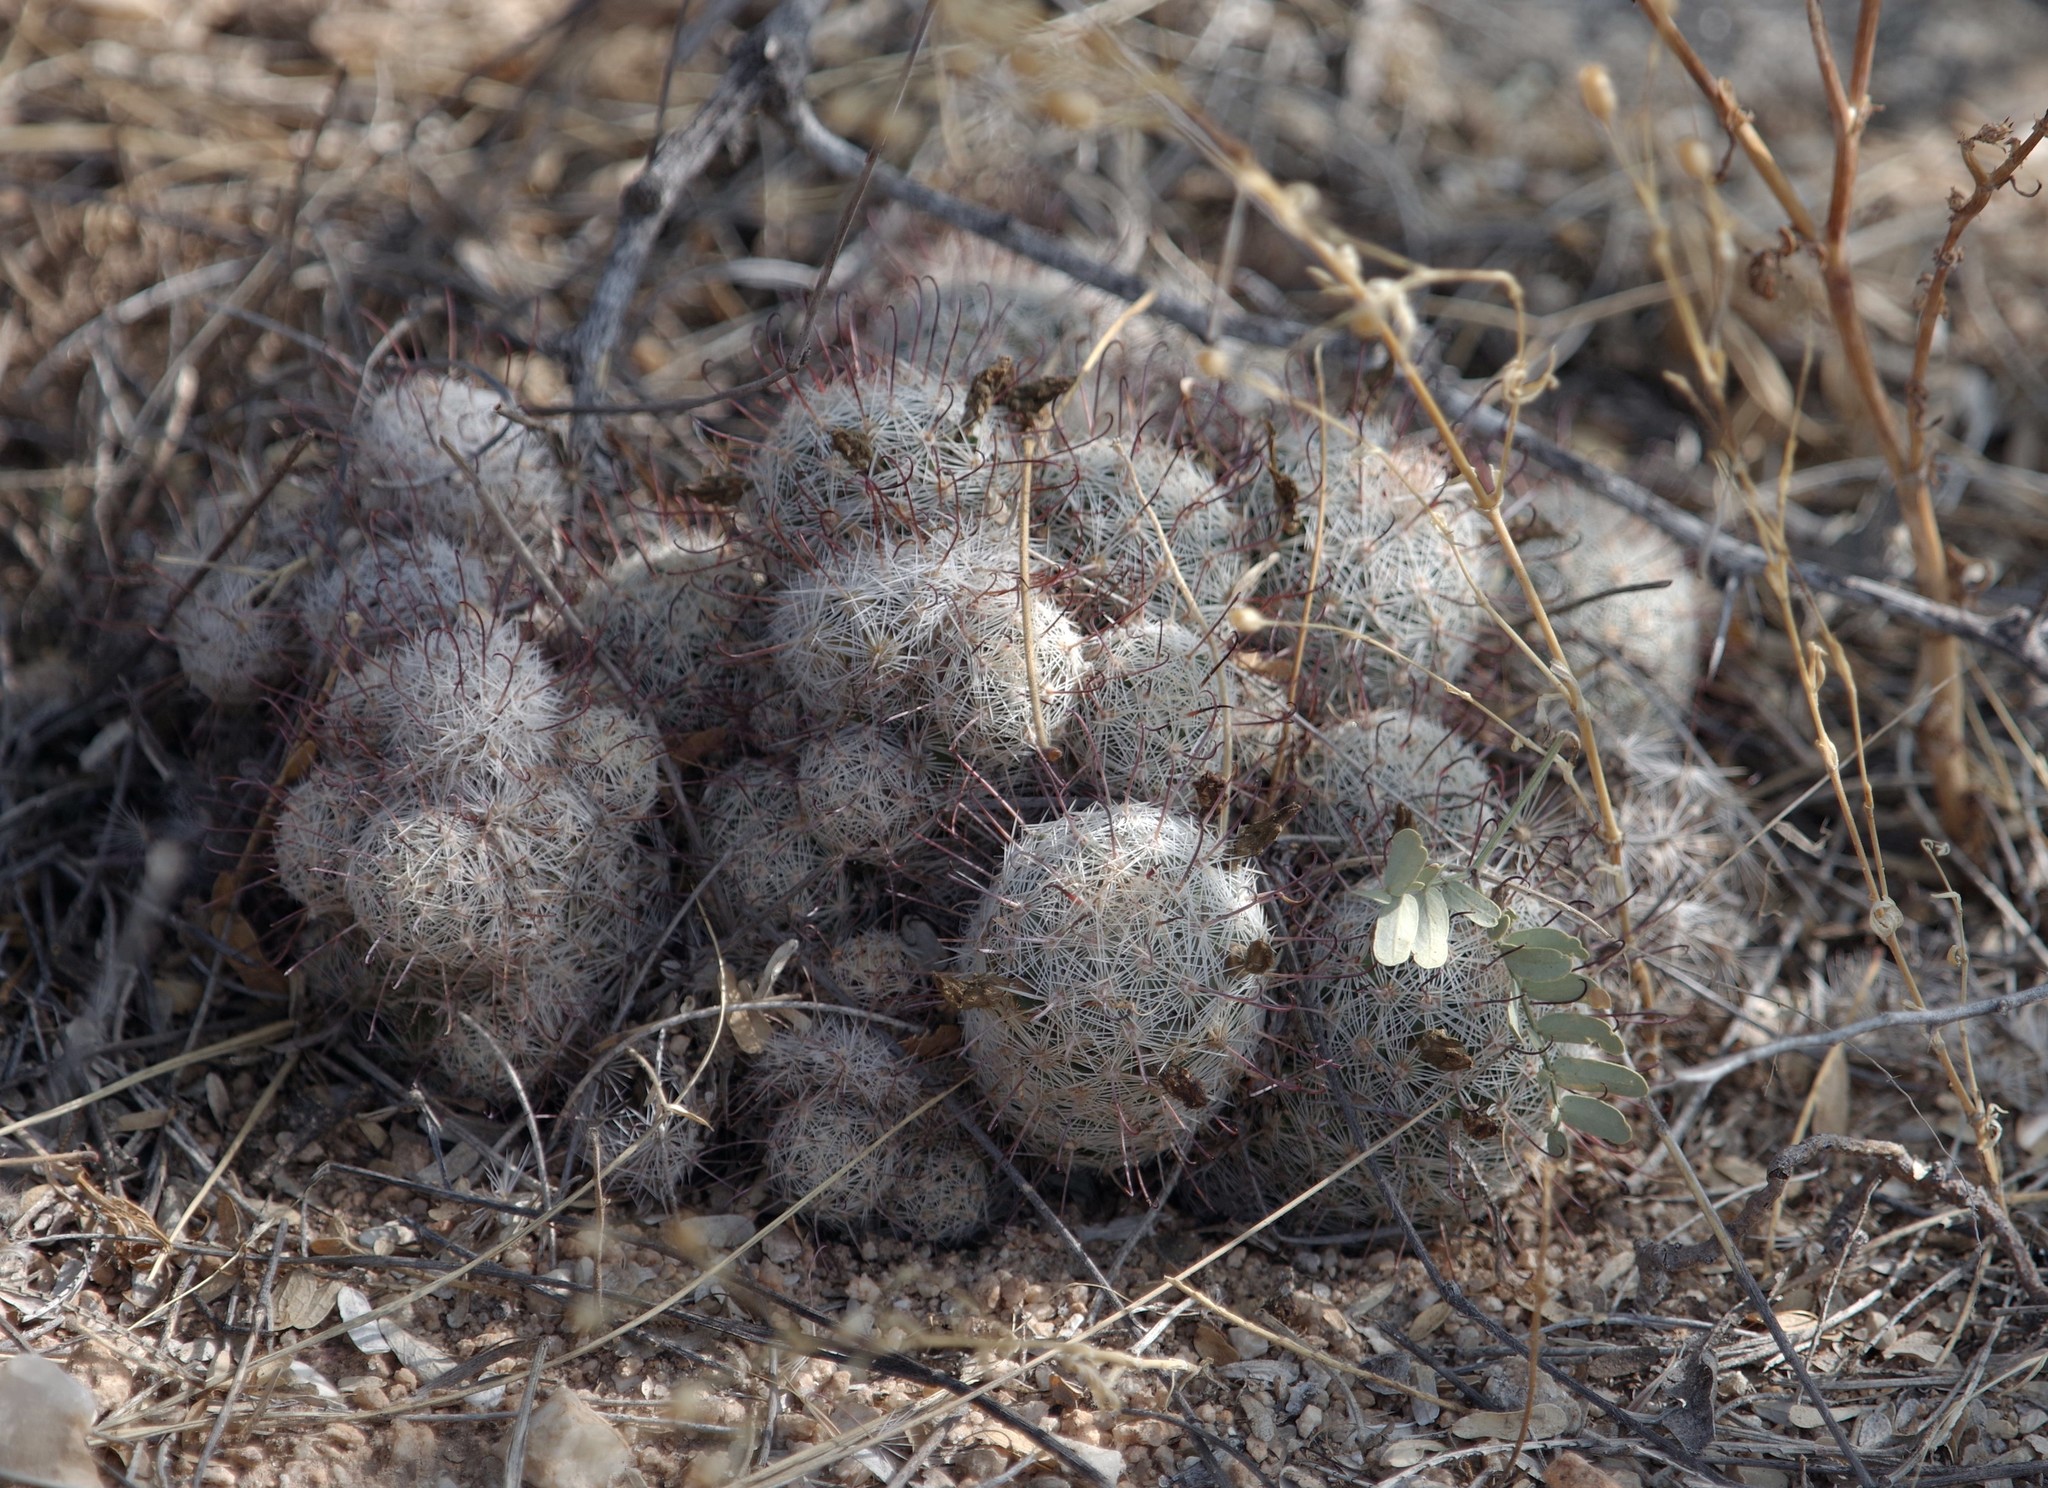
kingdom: Plantae
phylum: Tracheophyta
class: Magnoliopsida
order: Caryophyllales
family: Cactaceae
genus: Cochemiea
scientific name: Cochemiea grahamii
